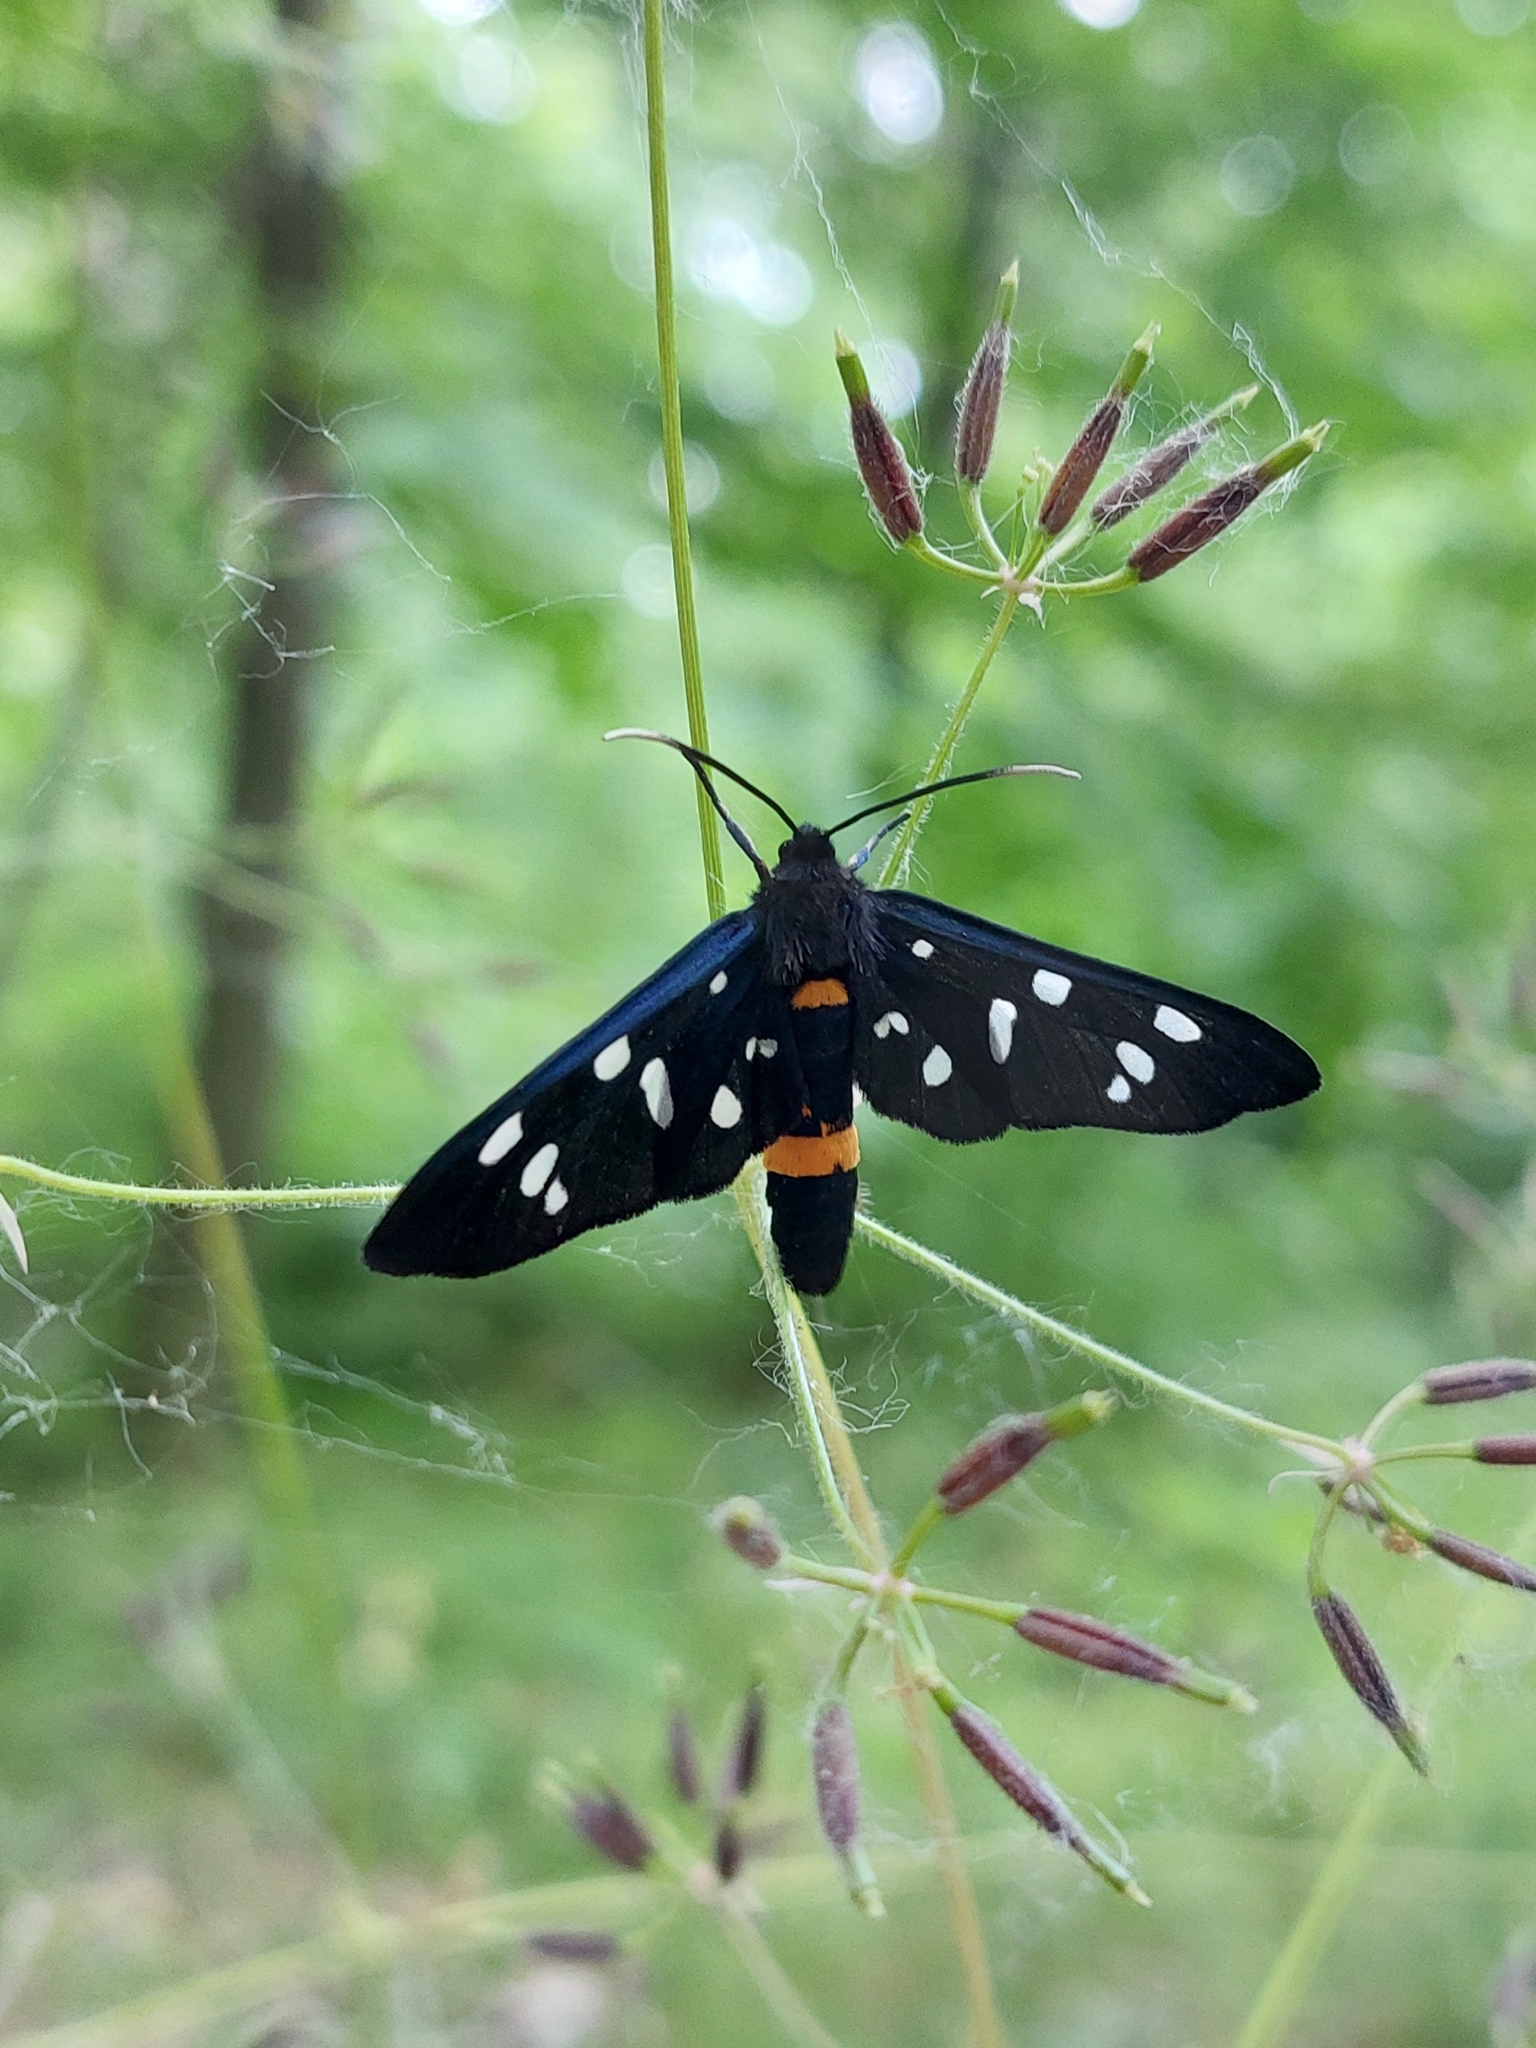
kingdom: Animalia
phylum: Arthropoda
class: Insecta
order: Lepidoptera
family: Erebidae
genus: Amata
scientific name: Amata phegea
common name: Nine-spotted
